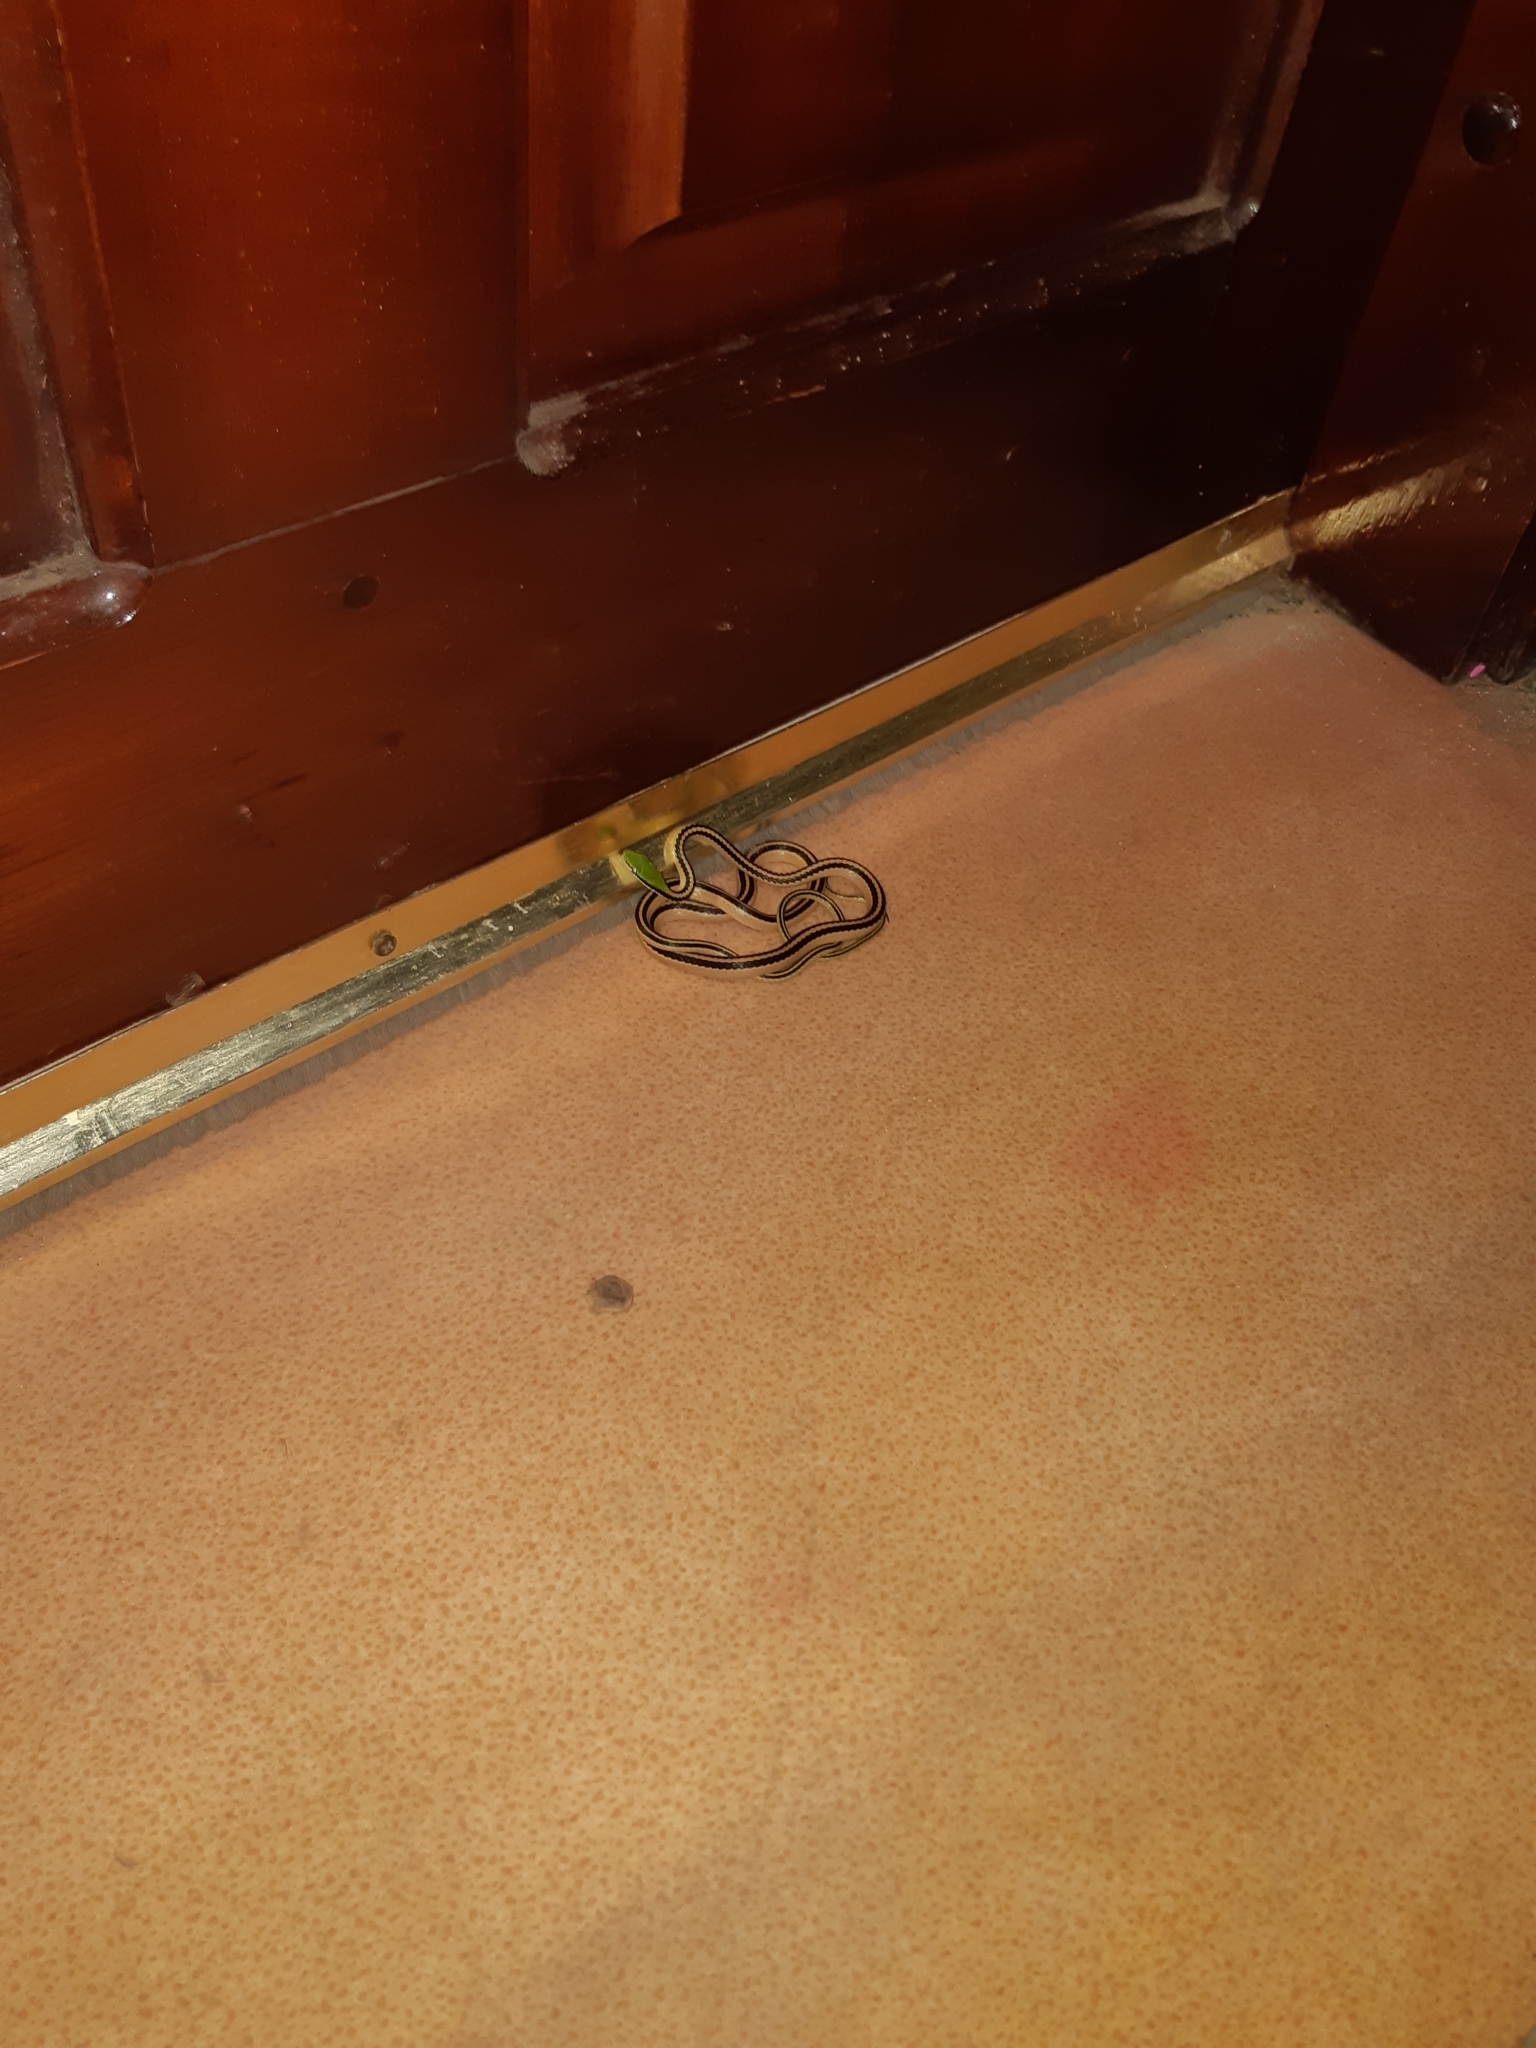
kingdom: Animalia
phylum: Chordata
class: Squamata
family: Colubridae
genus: Leptodrymus
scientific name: Leptodrymus pulcherrimus
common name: Striped lowland snake
